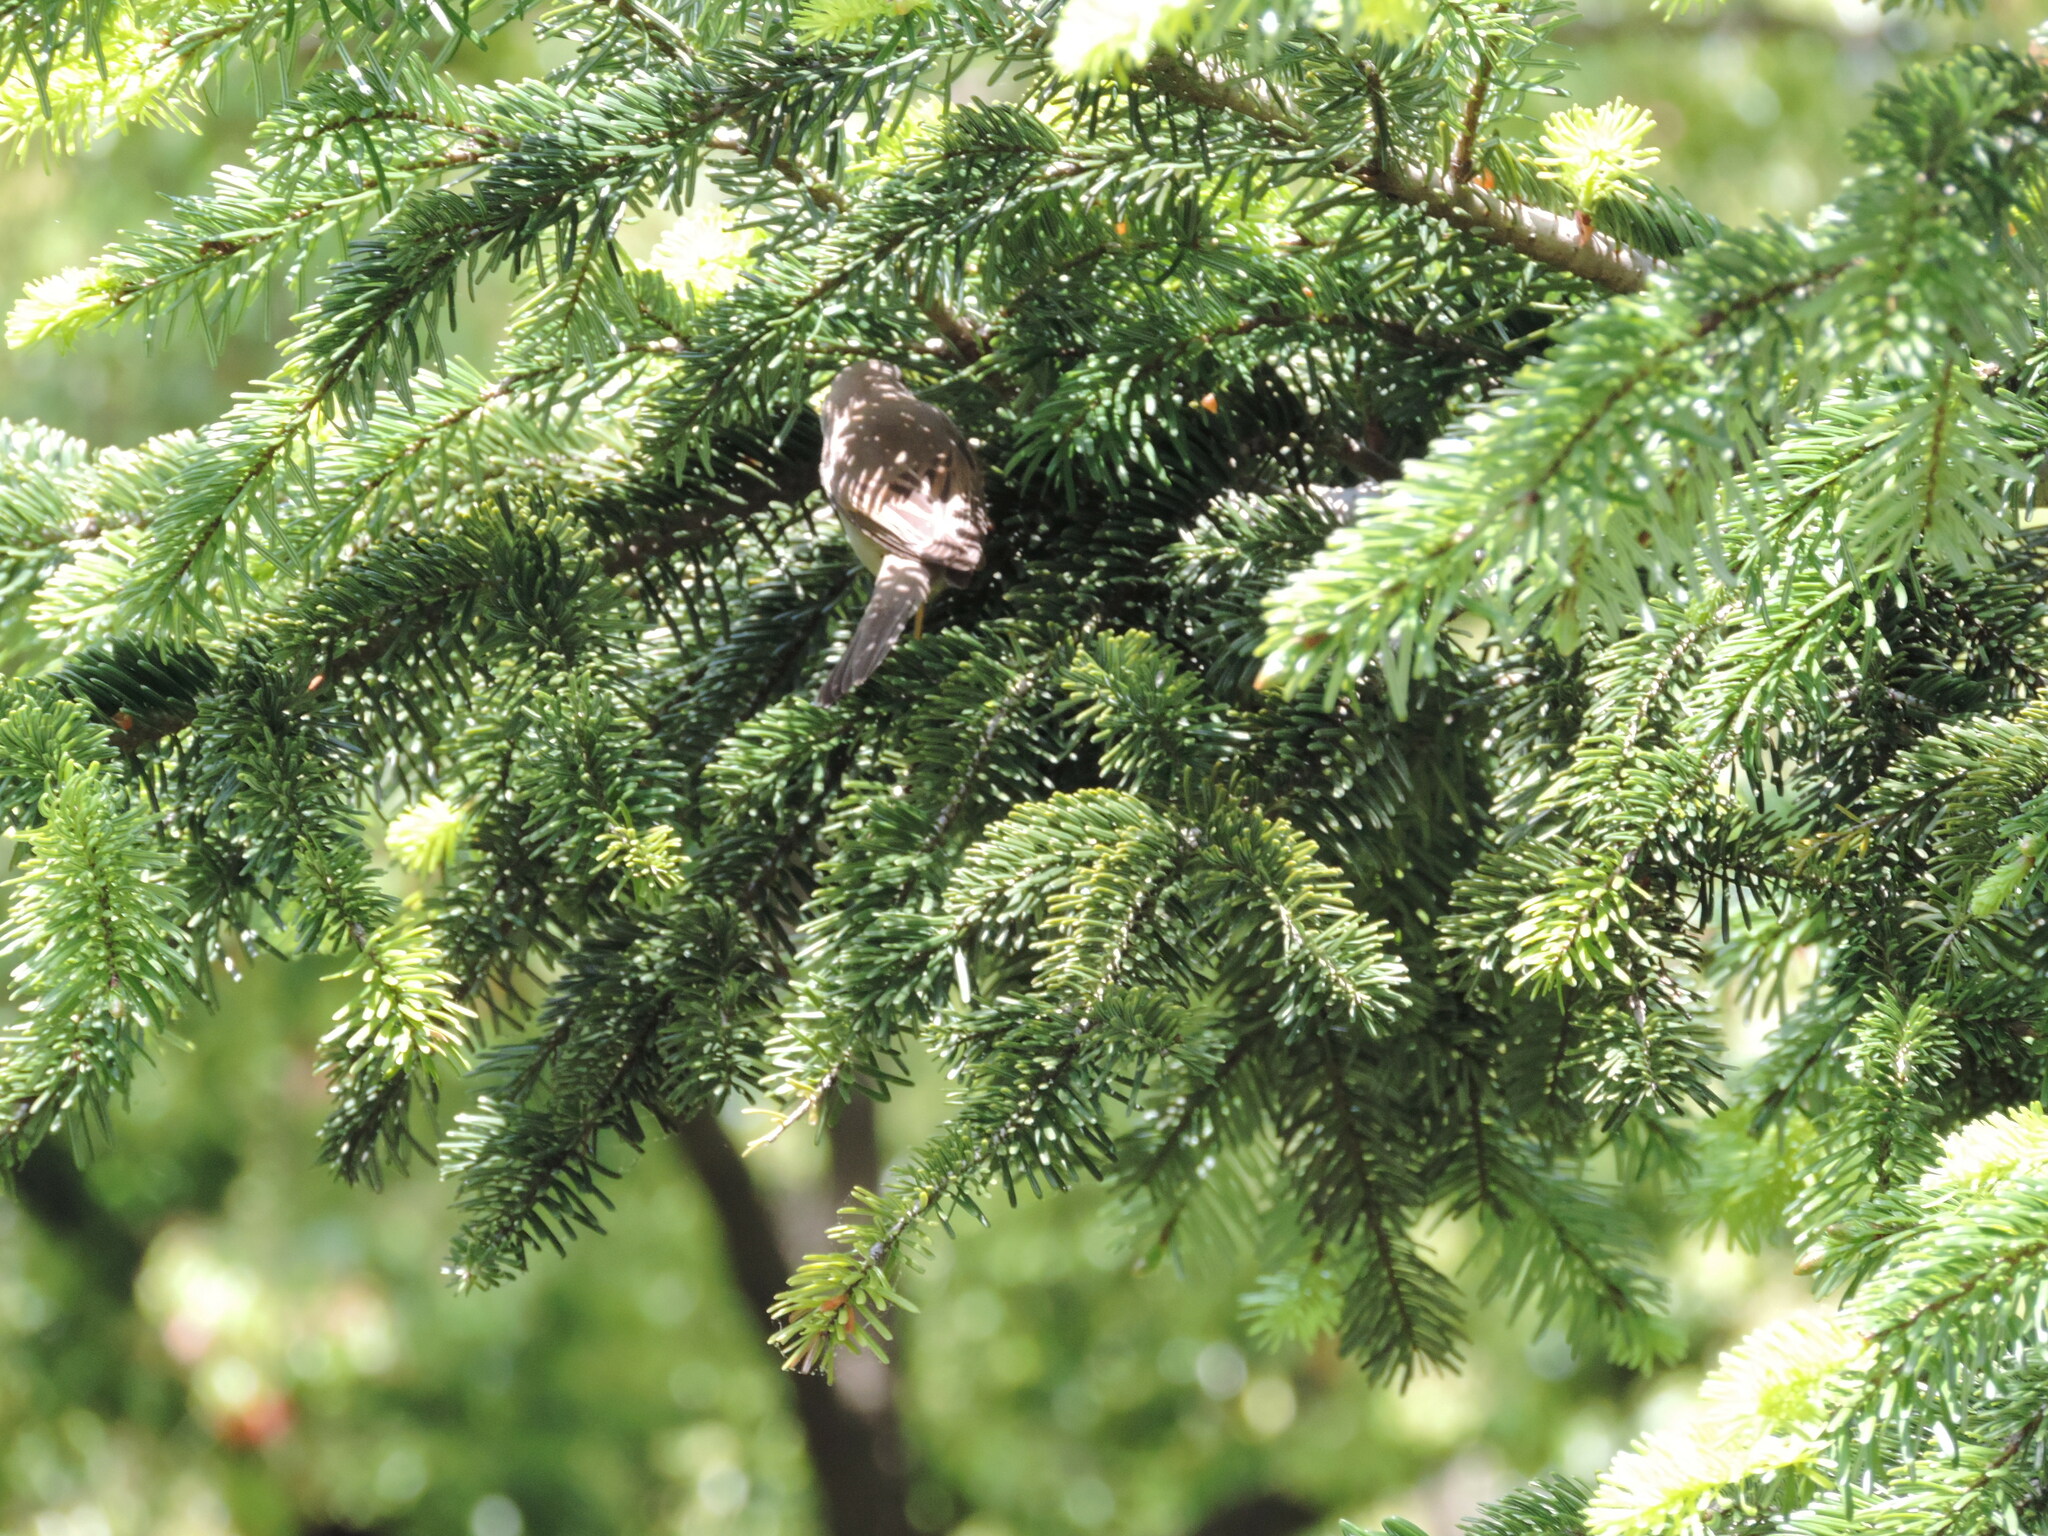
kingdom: Animalia
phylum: Chordata
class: Aves
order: Passeriformes
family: Sylviidae
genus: Sylvia
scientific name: Sylvia communis
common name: Common whitethroat
